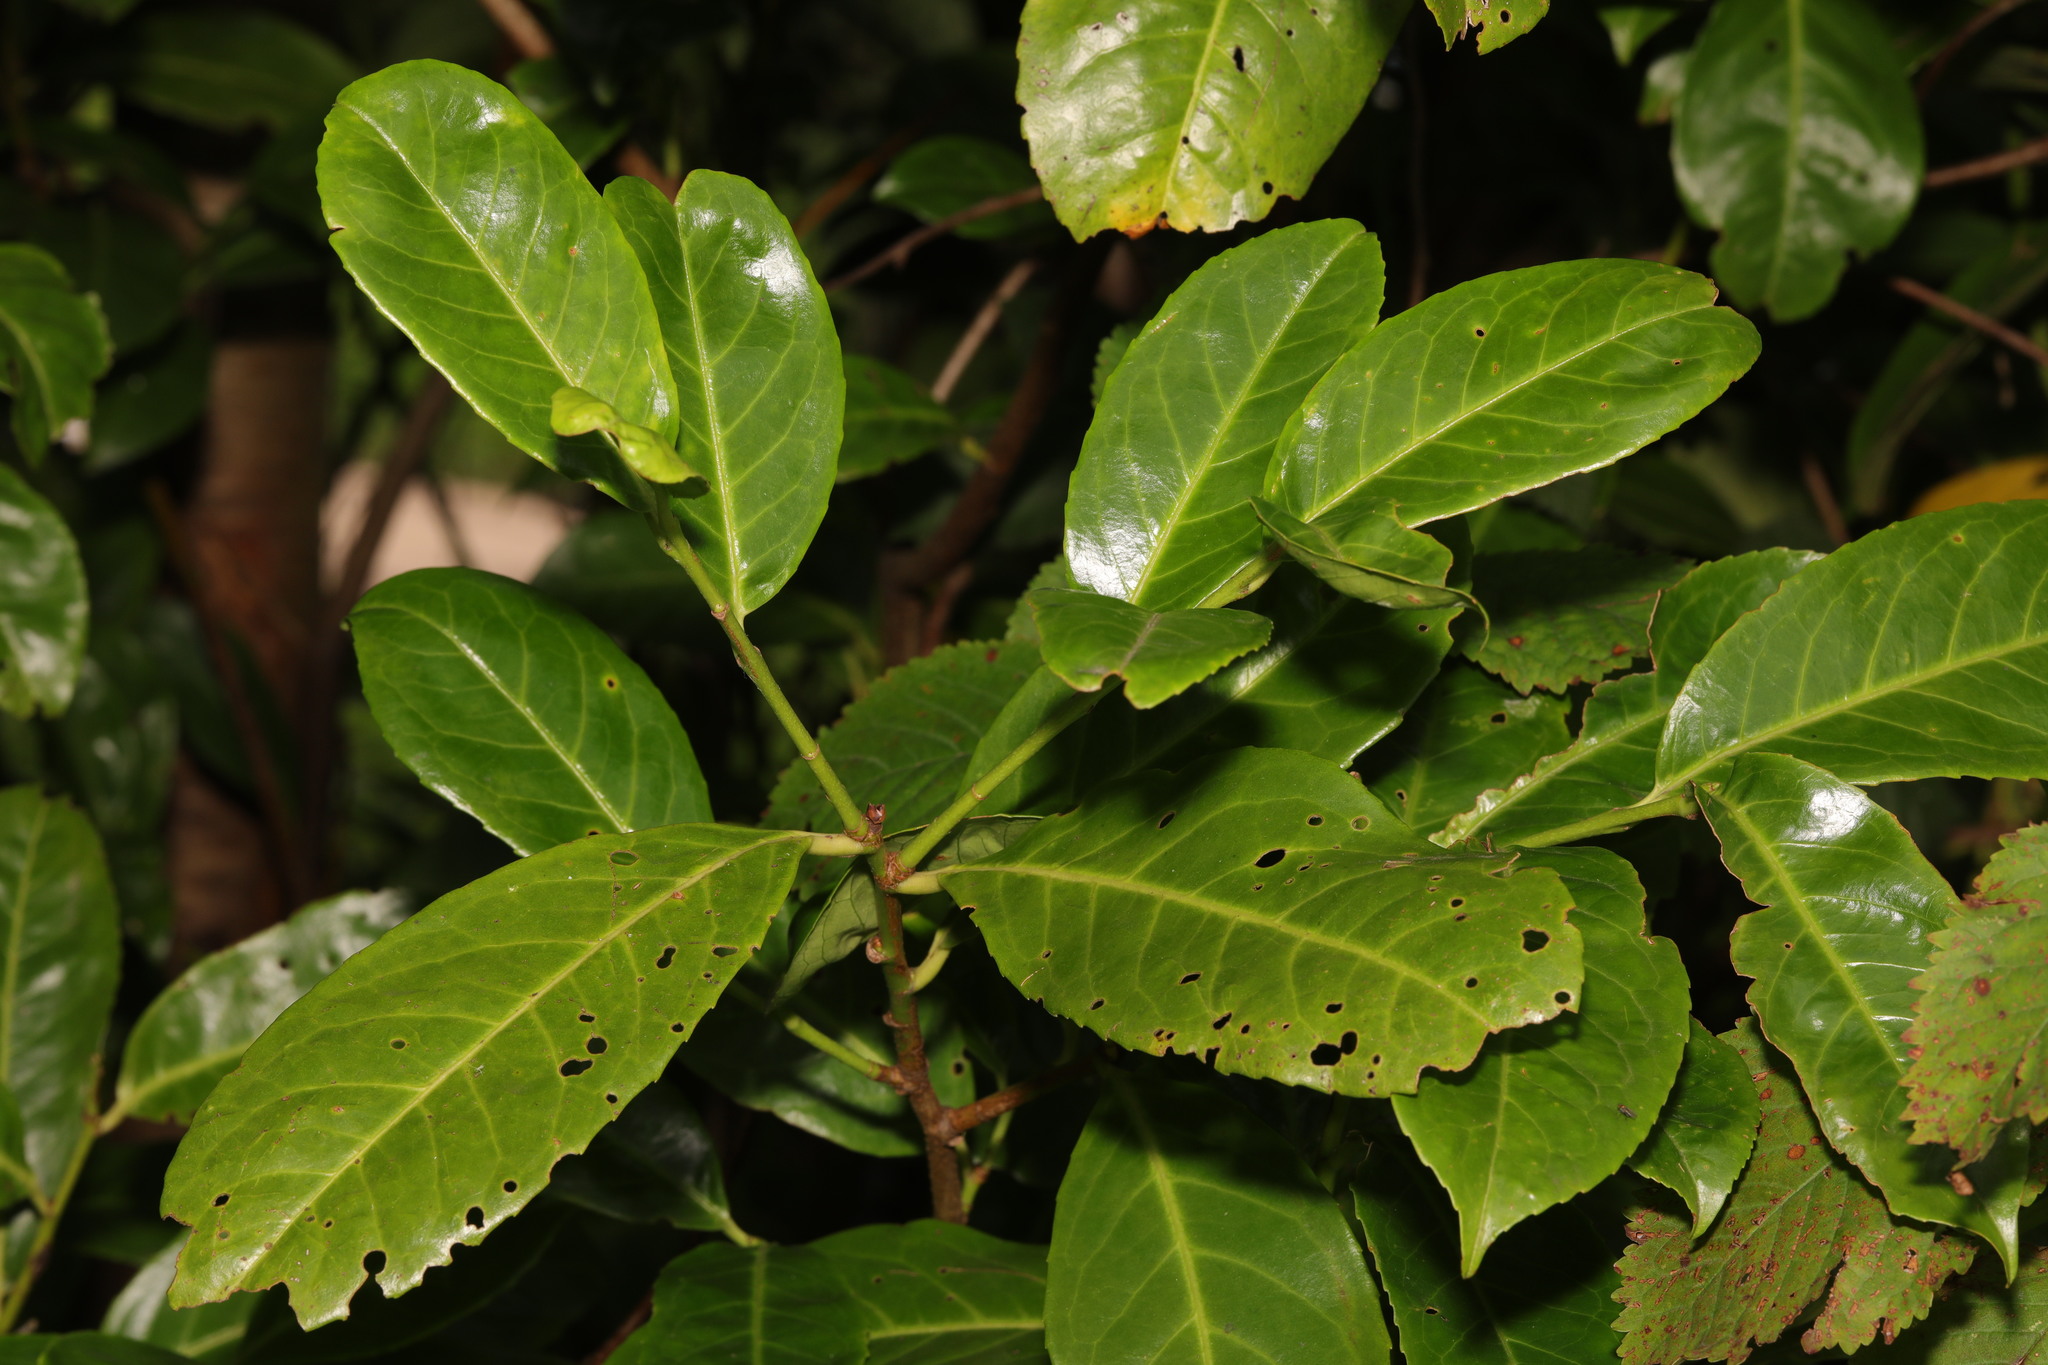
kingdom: Plantae
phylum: Tracheophyta
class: Magnoliopsida
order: Rosales
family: Rosaceae
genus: Prunus
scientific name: Prunus laurocerasus
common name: Cherry laurel
